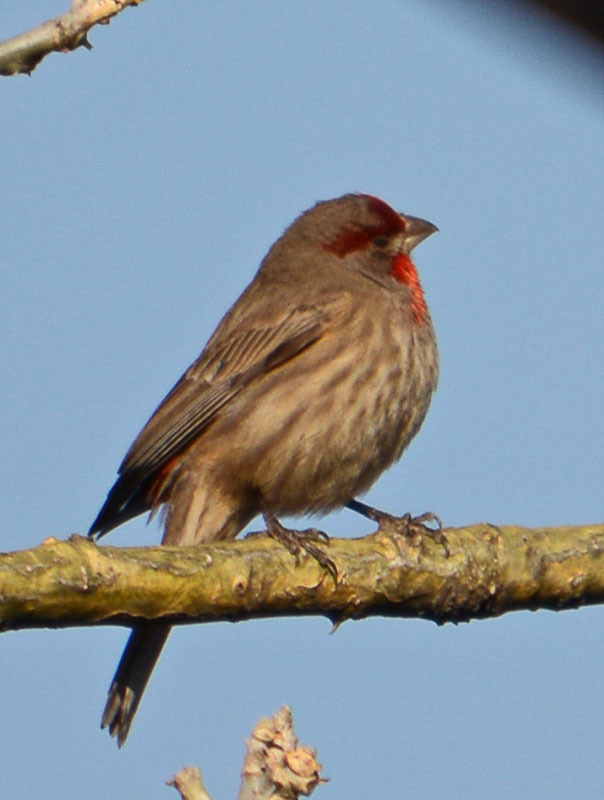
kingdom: Animalia
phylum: Chordata
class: Aves
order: Passeriformes
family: Fringillidae
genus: Haemorhous
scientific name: Haemorhous mexicanus
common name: House finch
